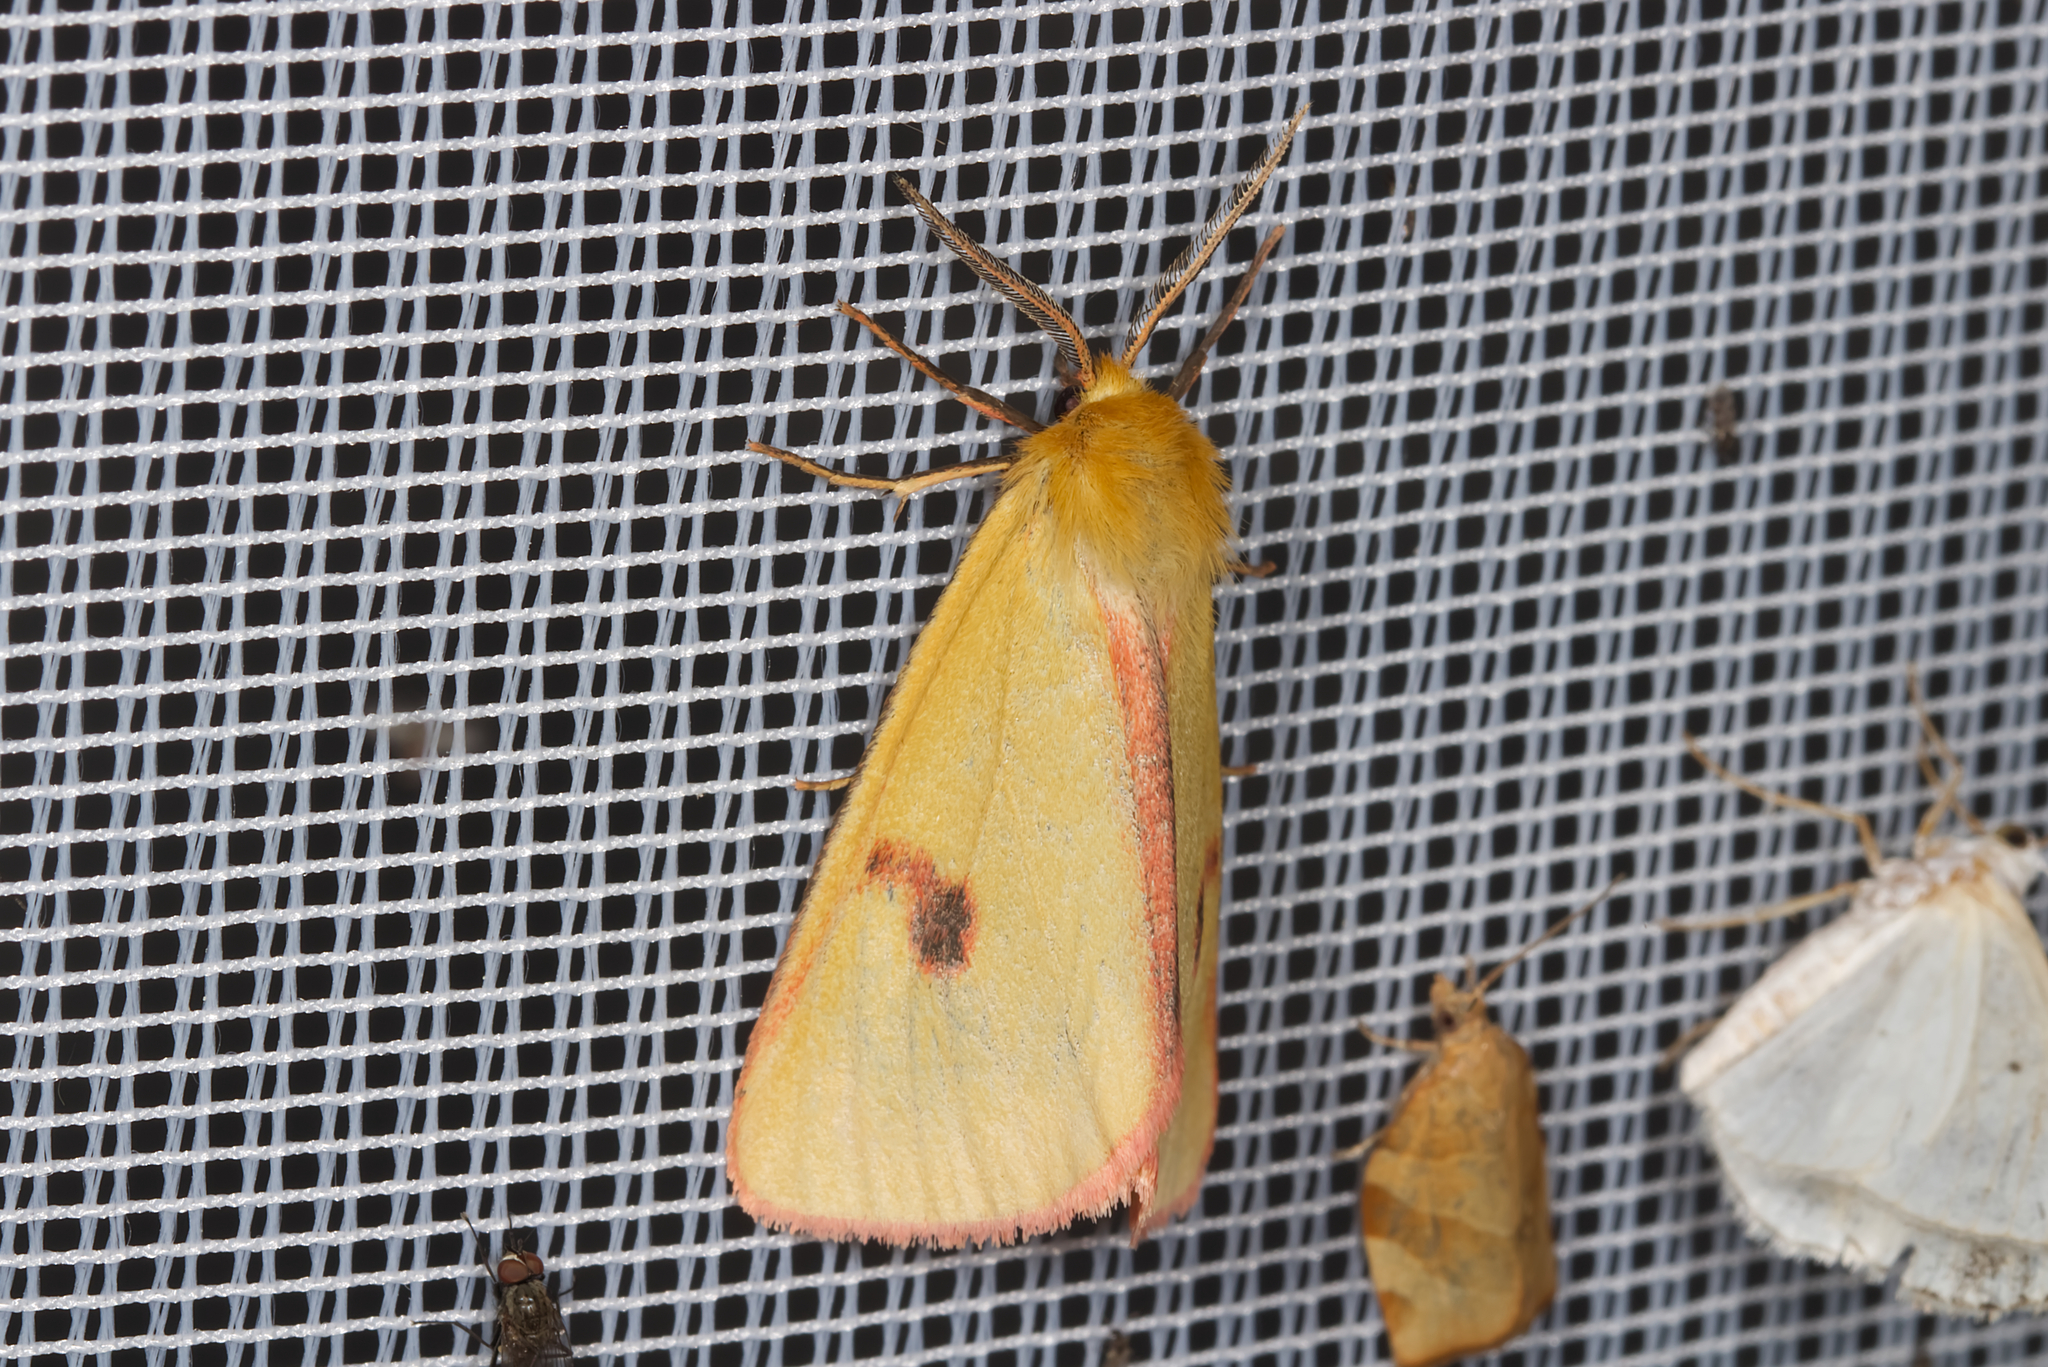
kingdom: Animalia
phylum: Arthropoda
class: Insecta
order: Lepidoptera
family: Erebidae
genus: Diacrisia
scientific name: Diacrisia sannio
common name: Clouded buff
